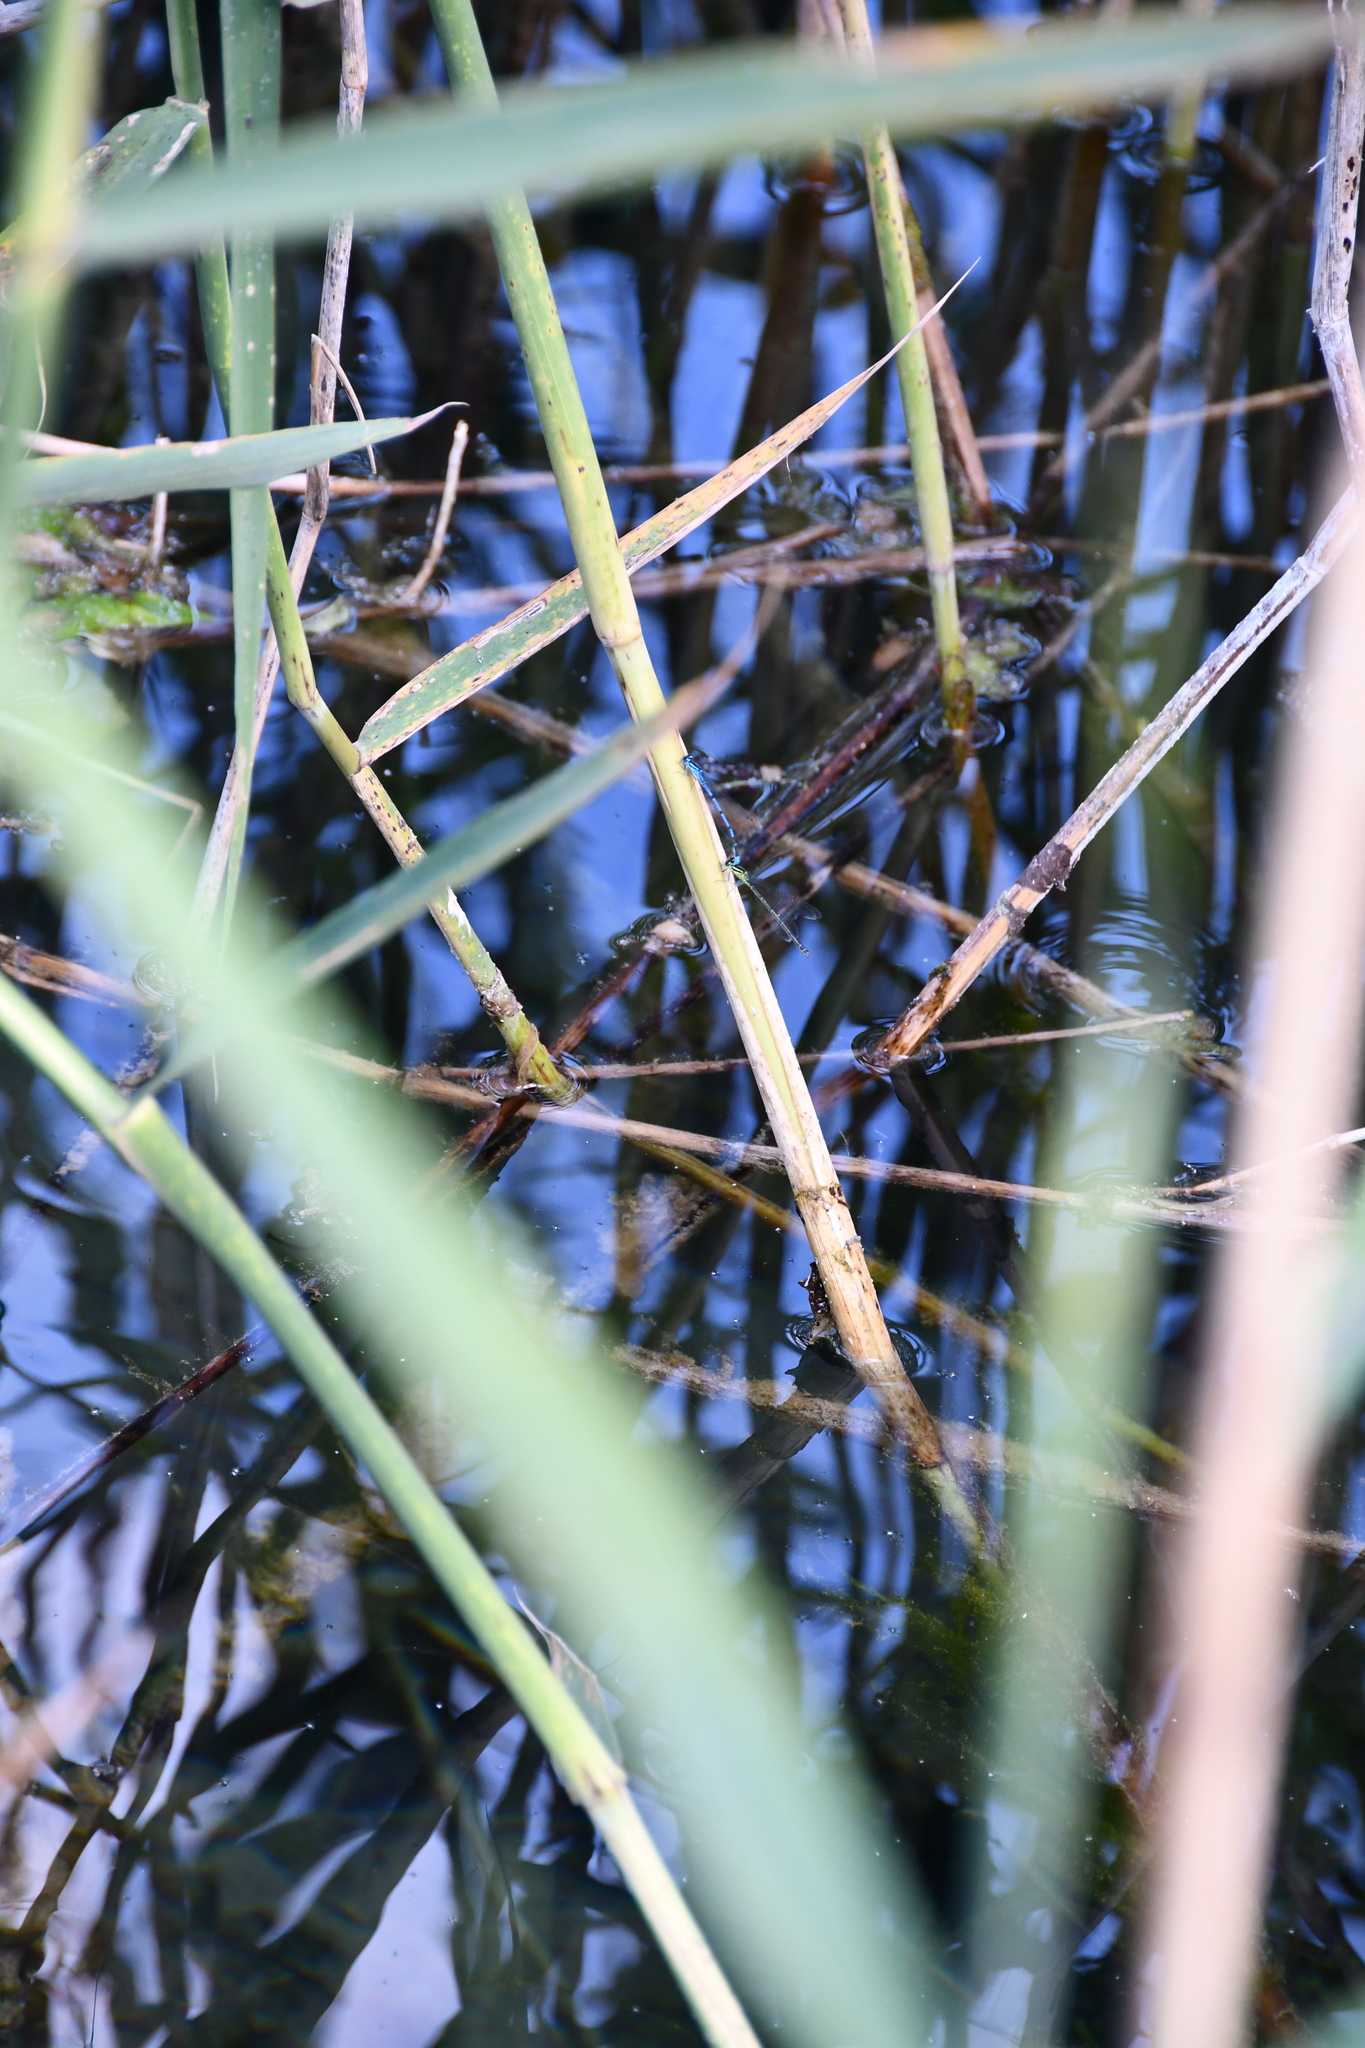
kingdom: Animalia
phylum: Arthropoda
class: Insecta
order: Odonata
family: Coenagrionidae
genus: Coenagrion
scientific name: Coenagrion puella
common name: Azure damselfly
